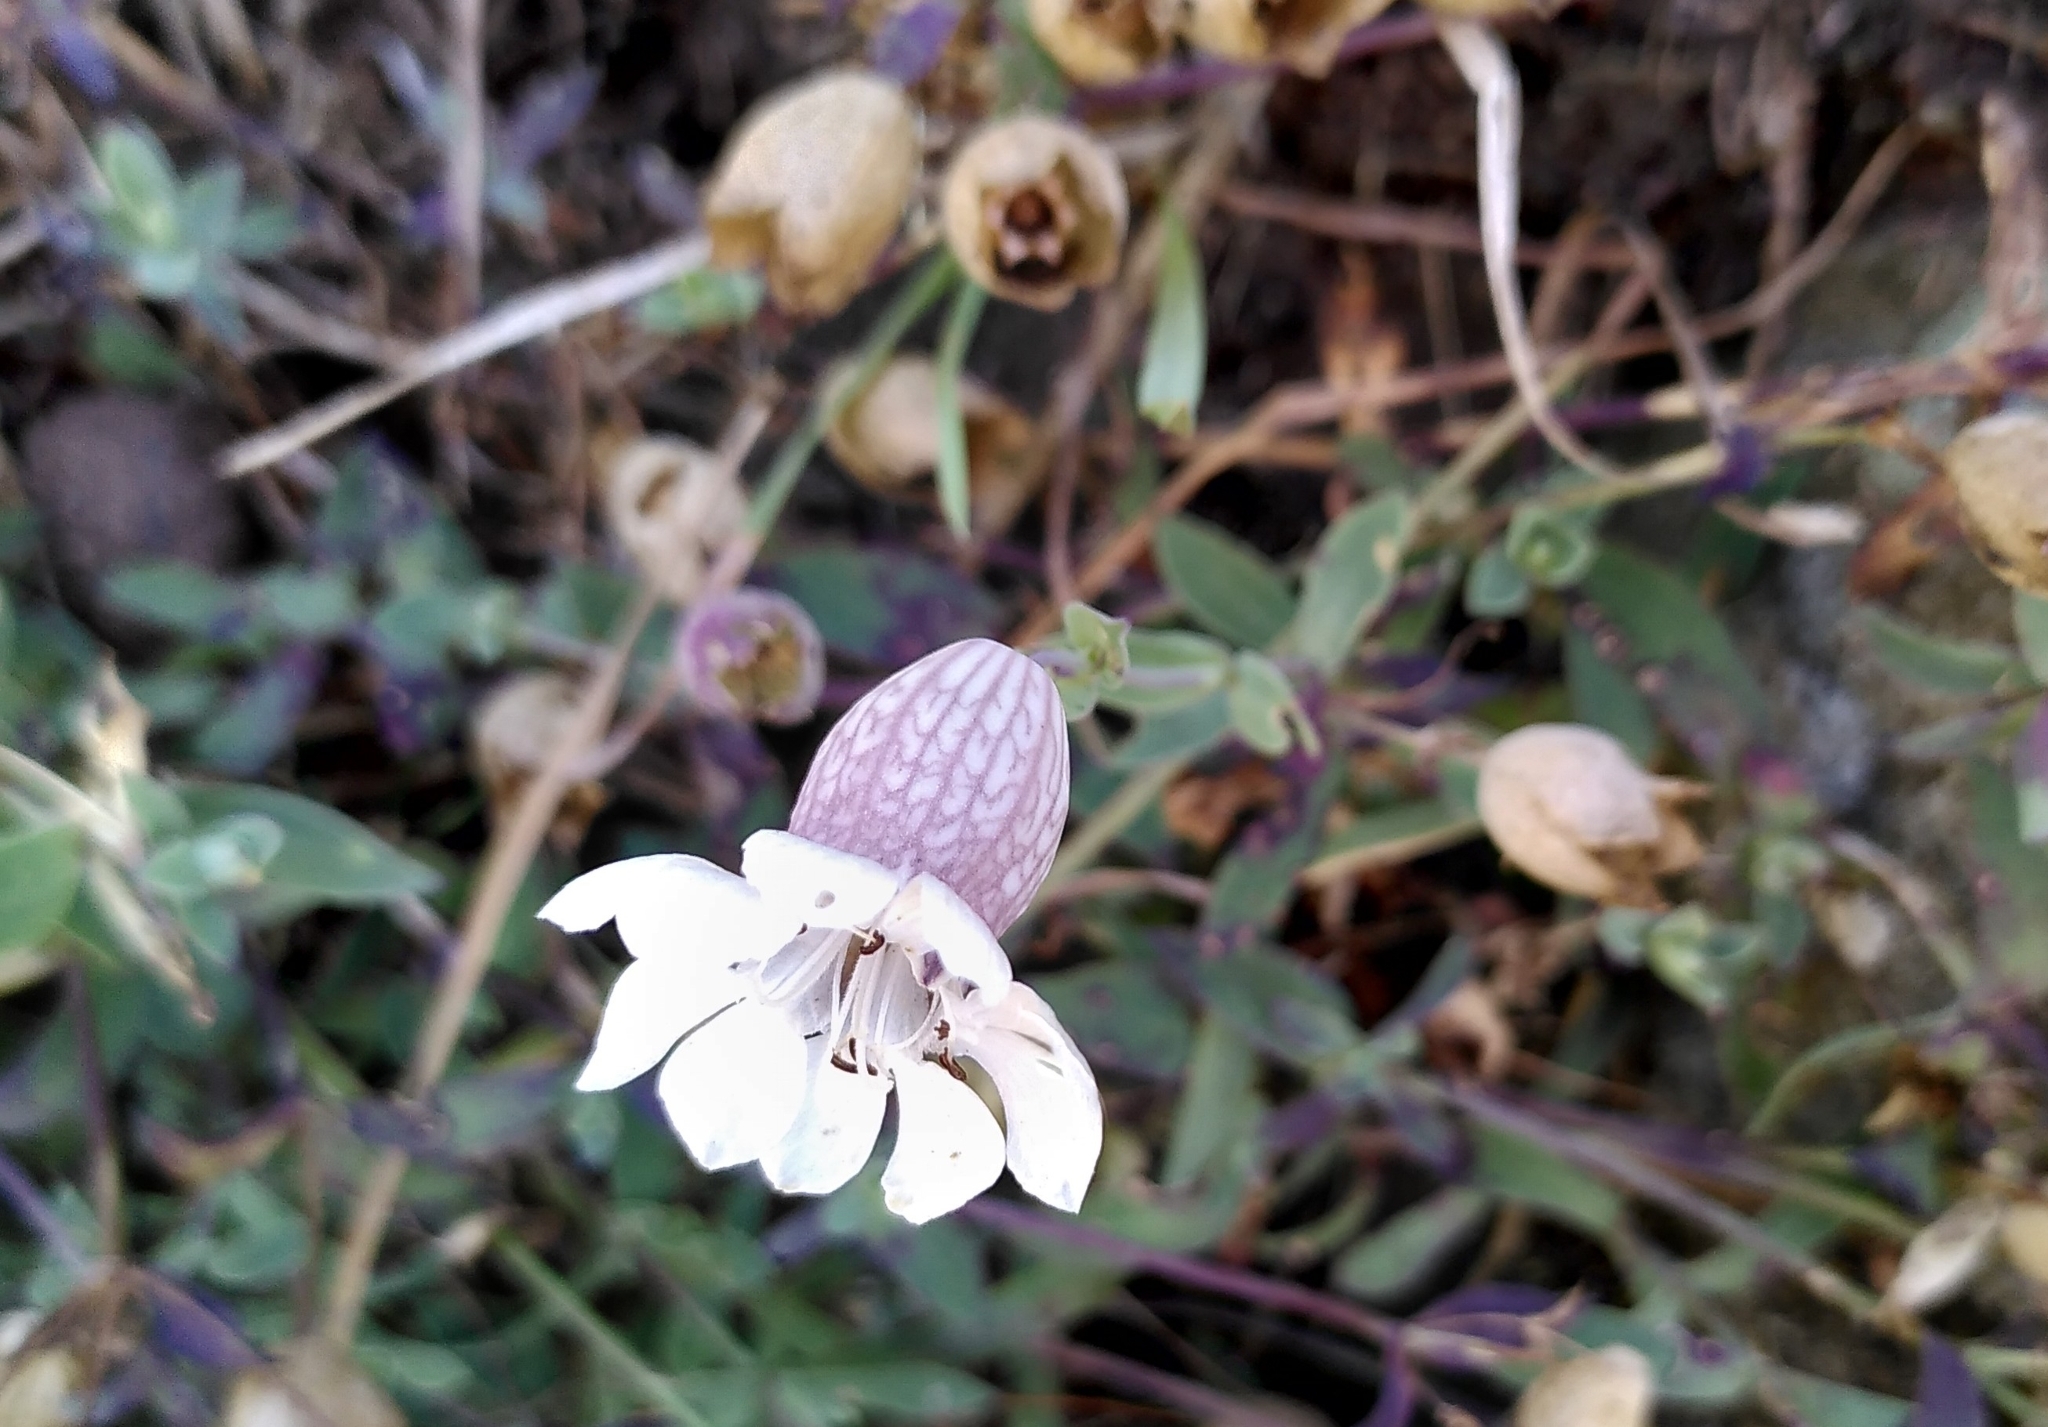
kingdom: Plantae
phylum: Tracheophyta
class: Magnoliopsida
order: Caryophyllales
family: Caryophyllaceae
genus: Silene
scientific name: Silene uniflora
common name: Sea campion
